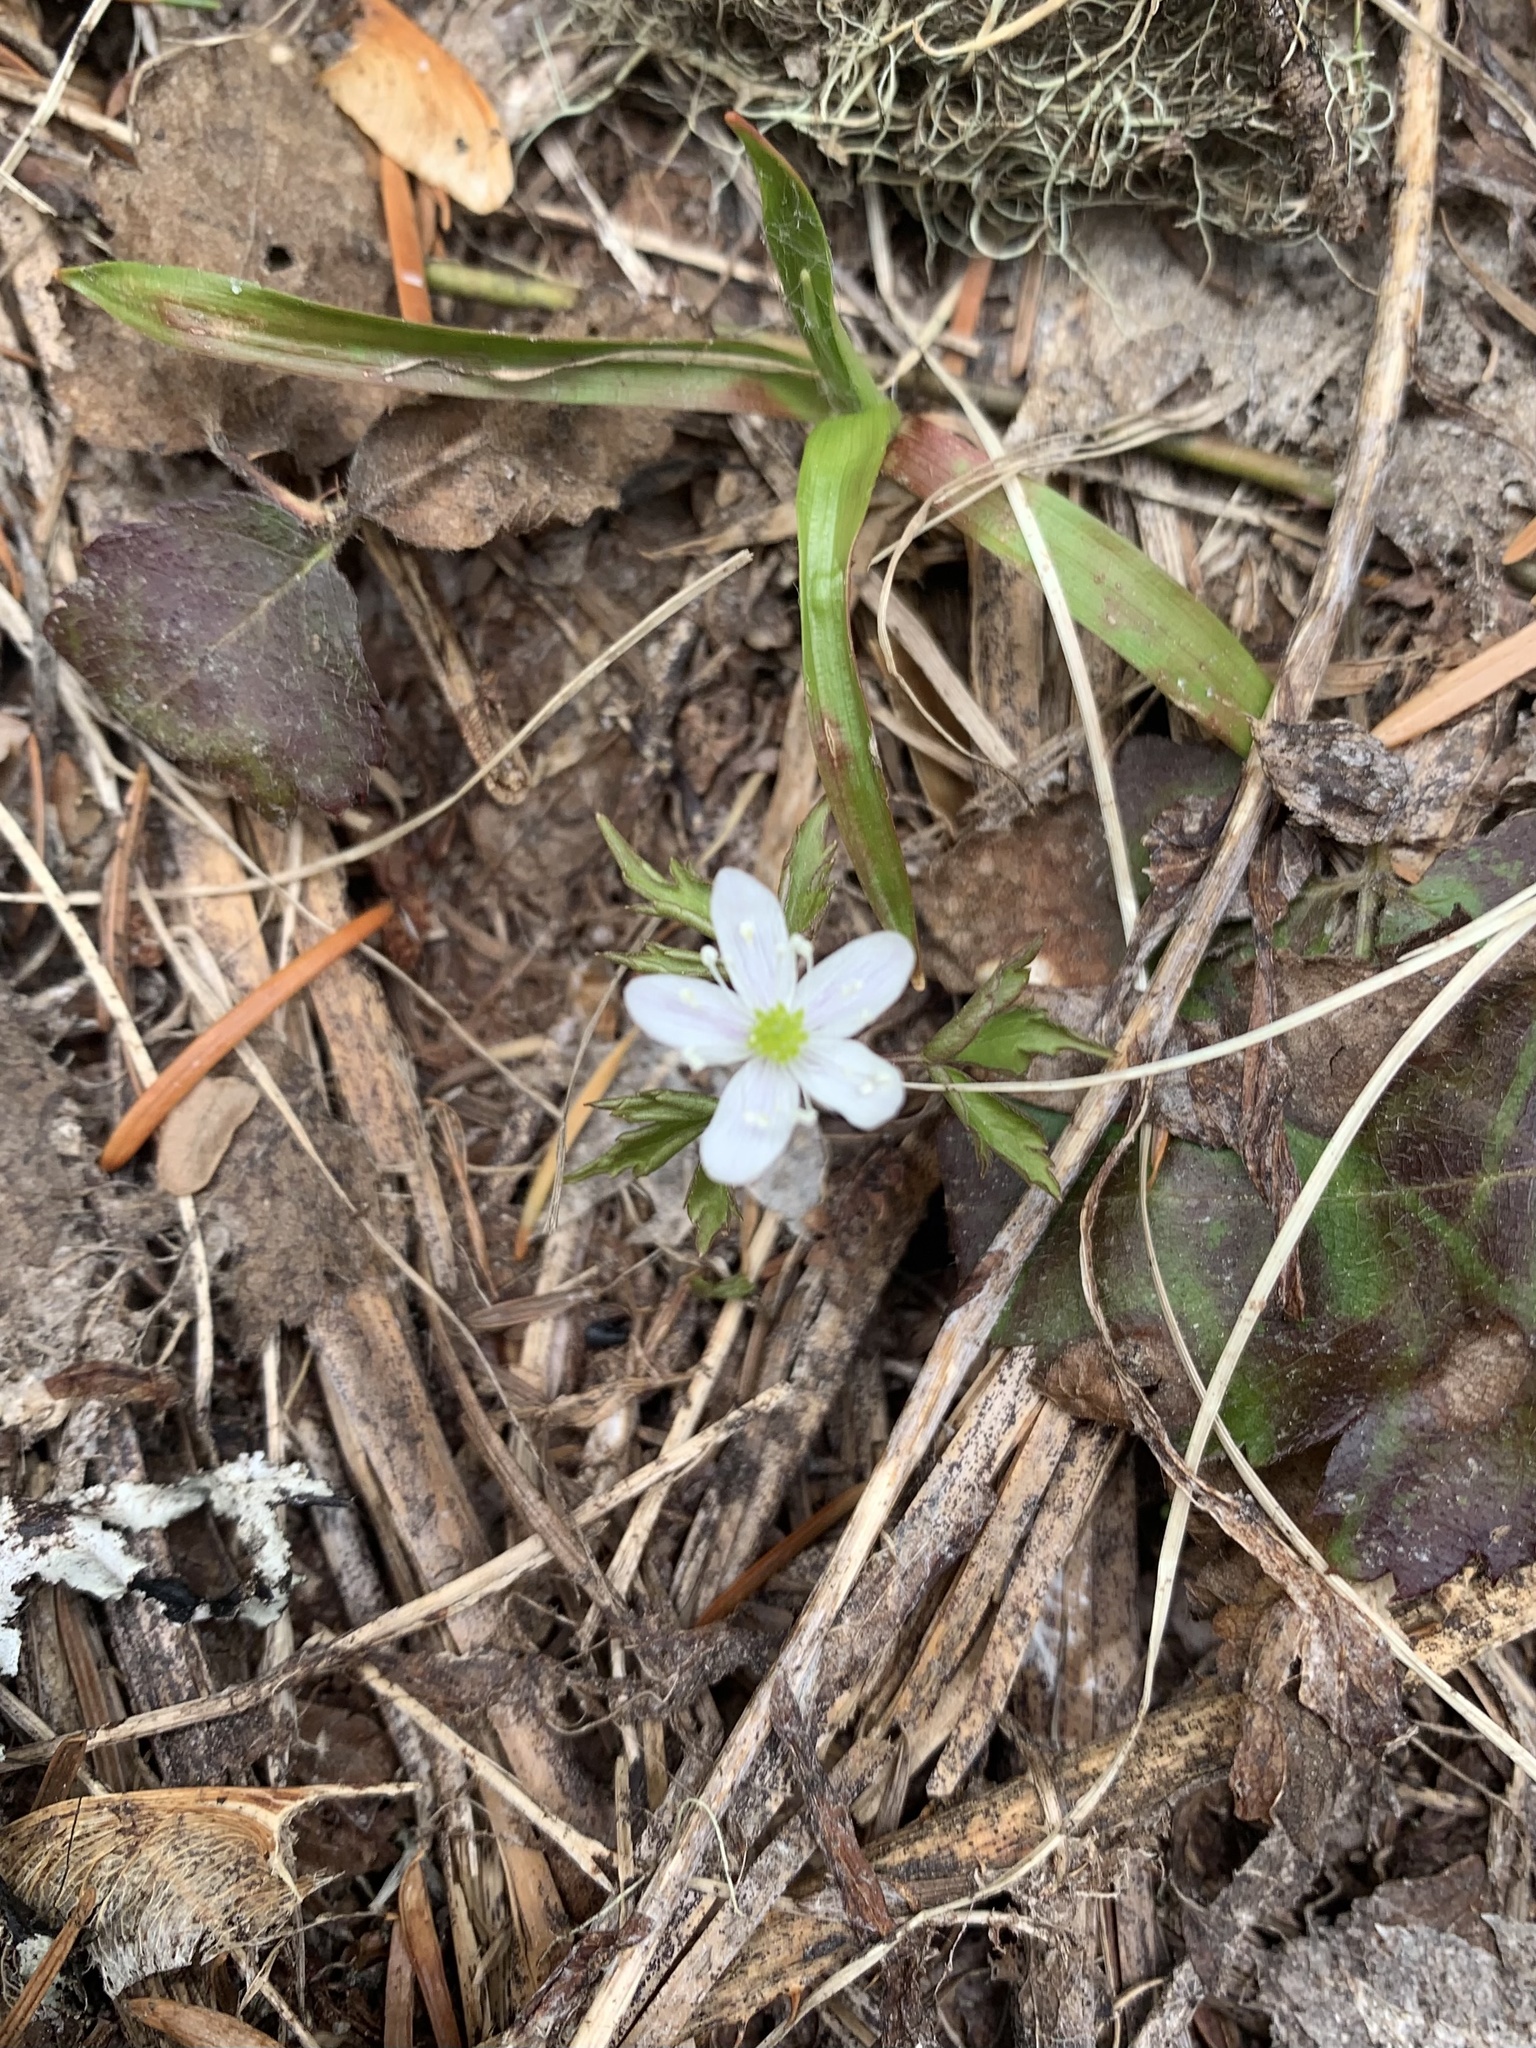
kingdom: Plantae
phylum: Tracheophyta
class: Magnoliopsida
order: Ranunculales
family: Ranunculaceae
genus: Anemone
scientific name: Anemone
